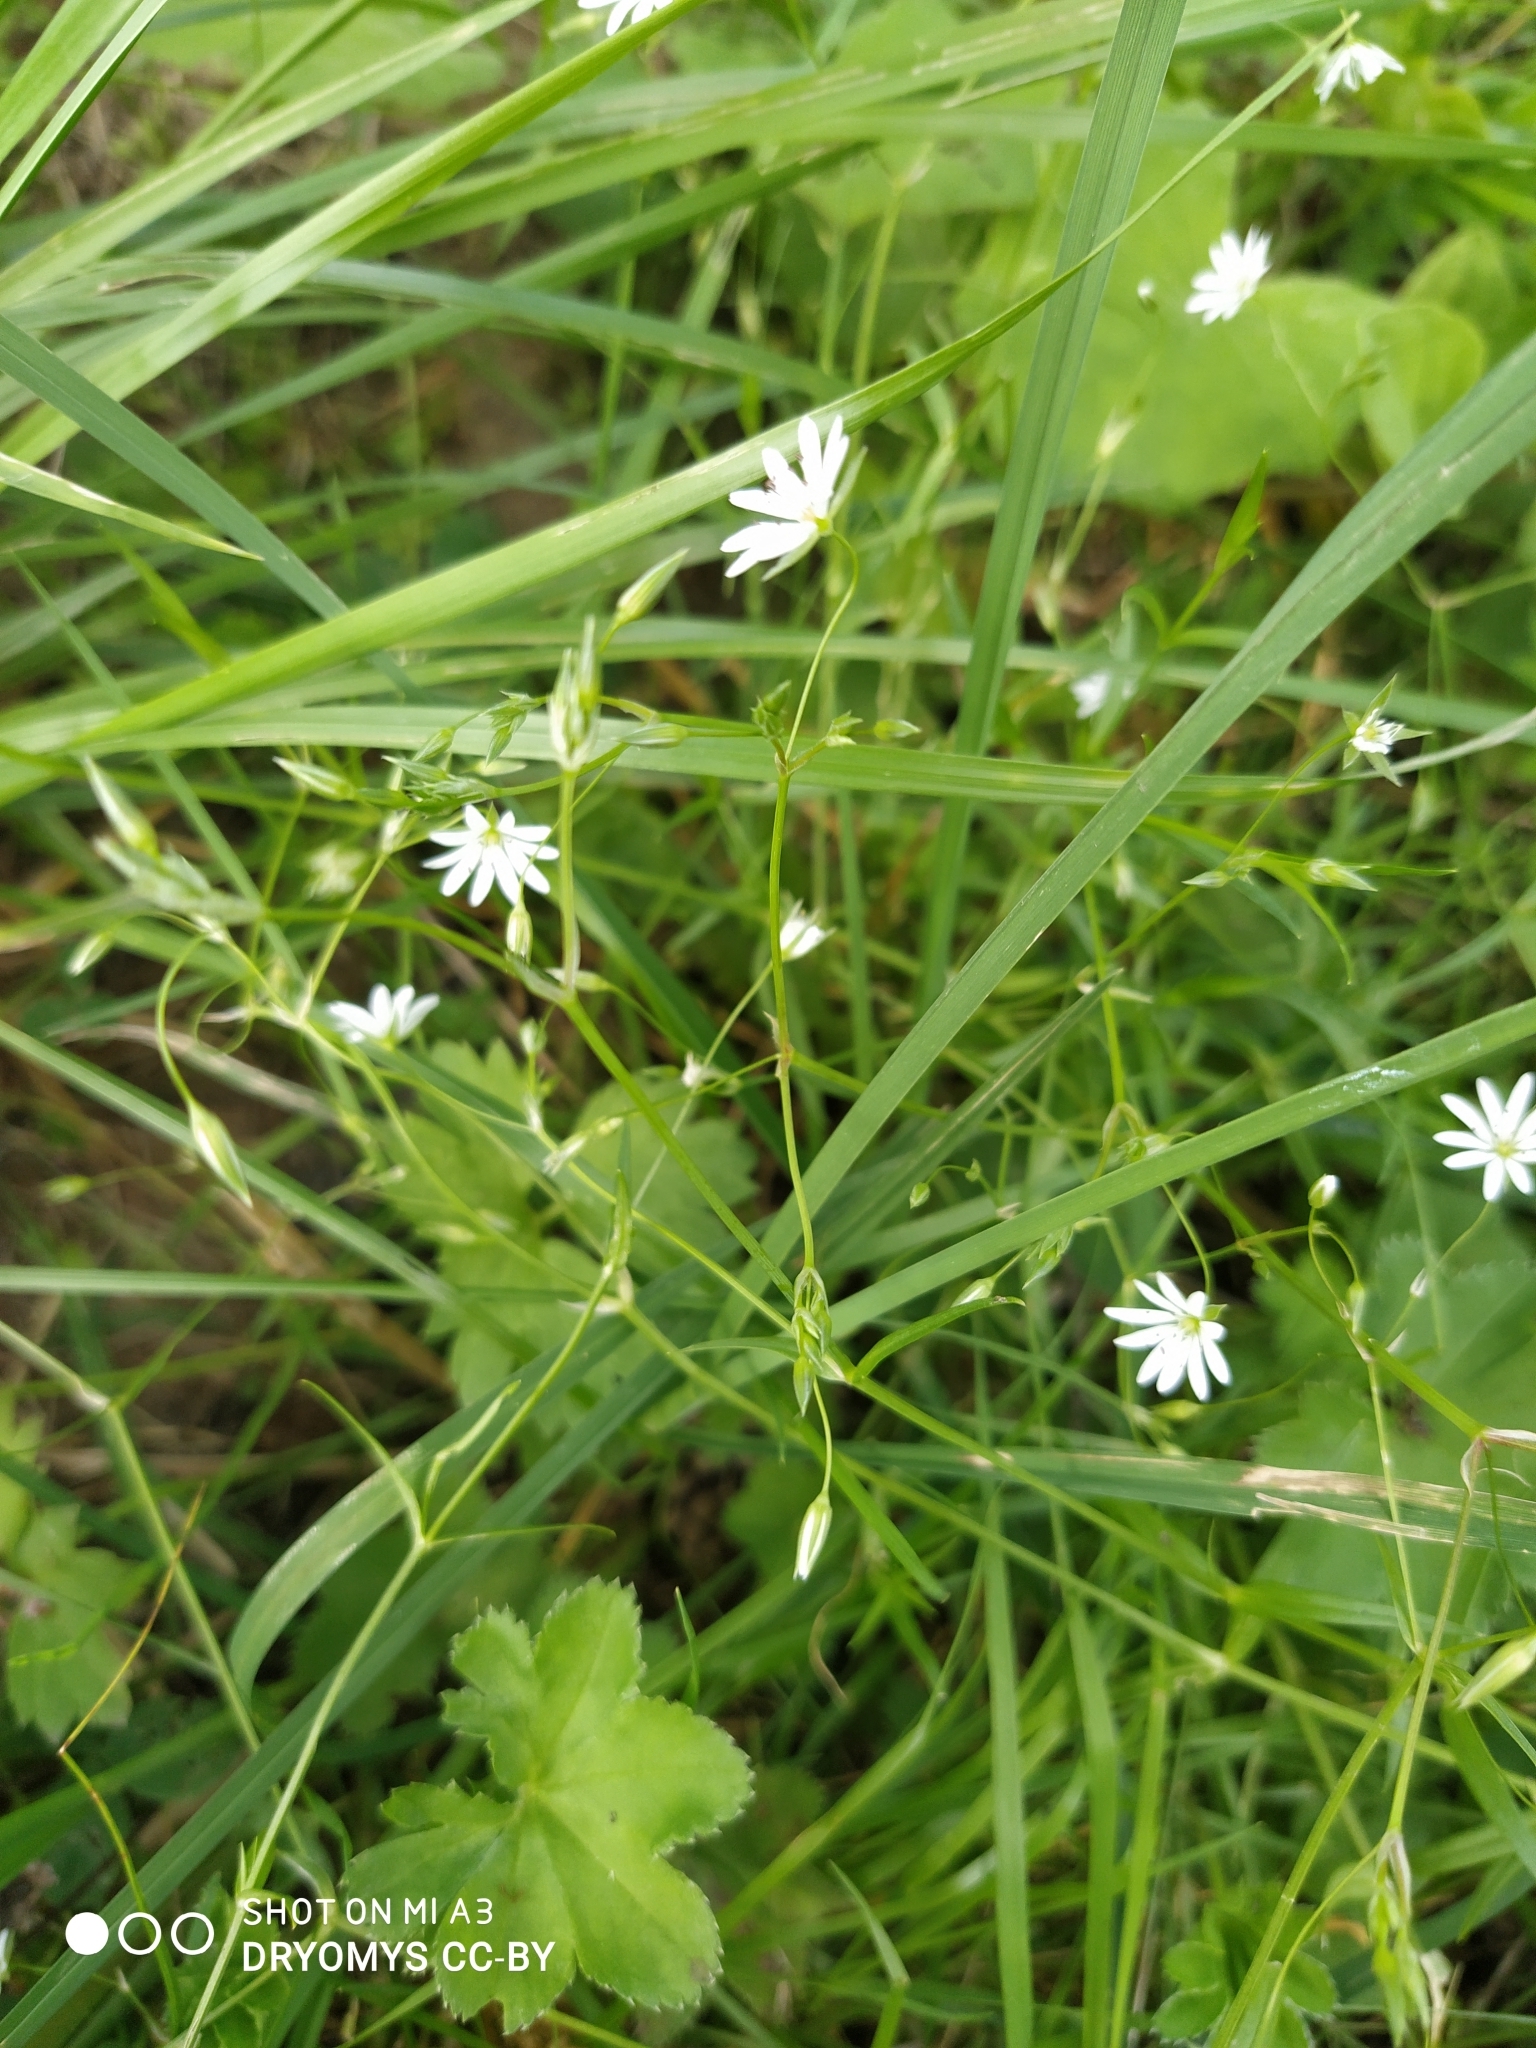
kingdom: Plantae
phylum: Tracheophyta
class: Magnoliopsida
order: Caryophyllales
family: Caryophyllaceae
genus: Stellaria
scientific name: Stellaria graminea
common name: Grass-like starwort
